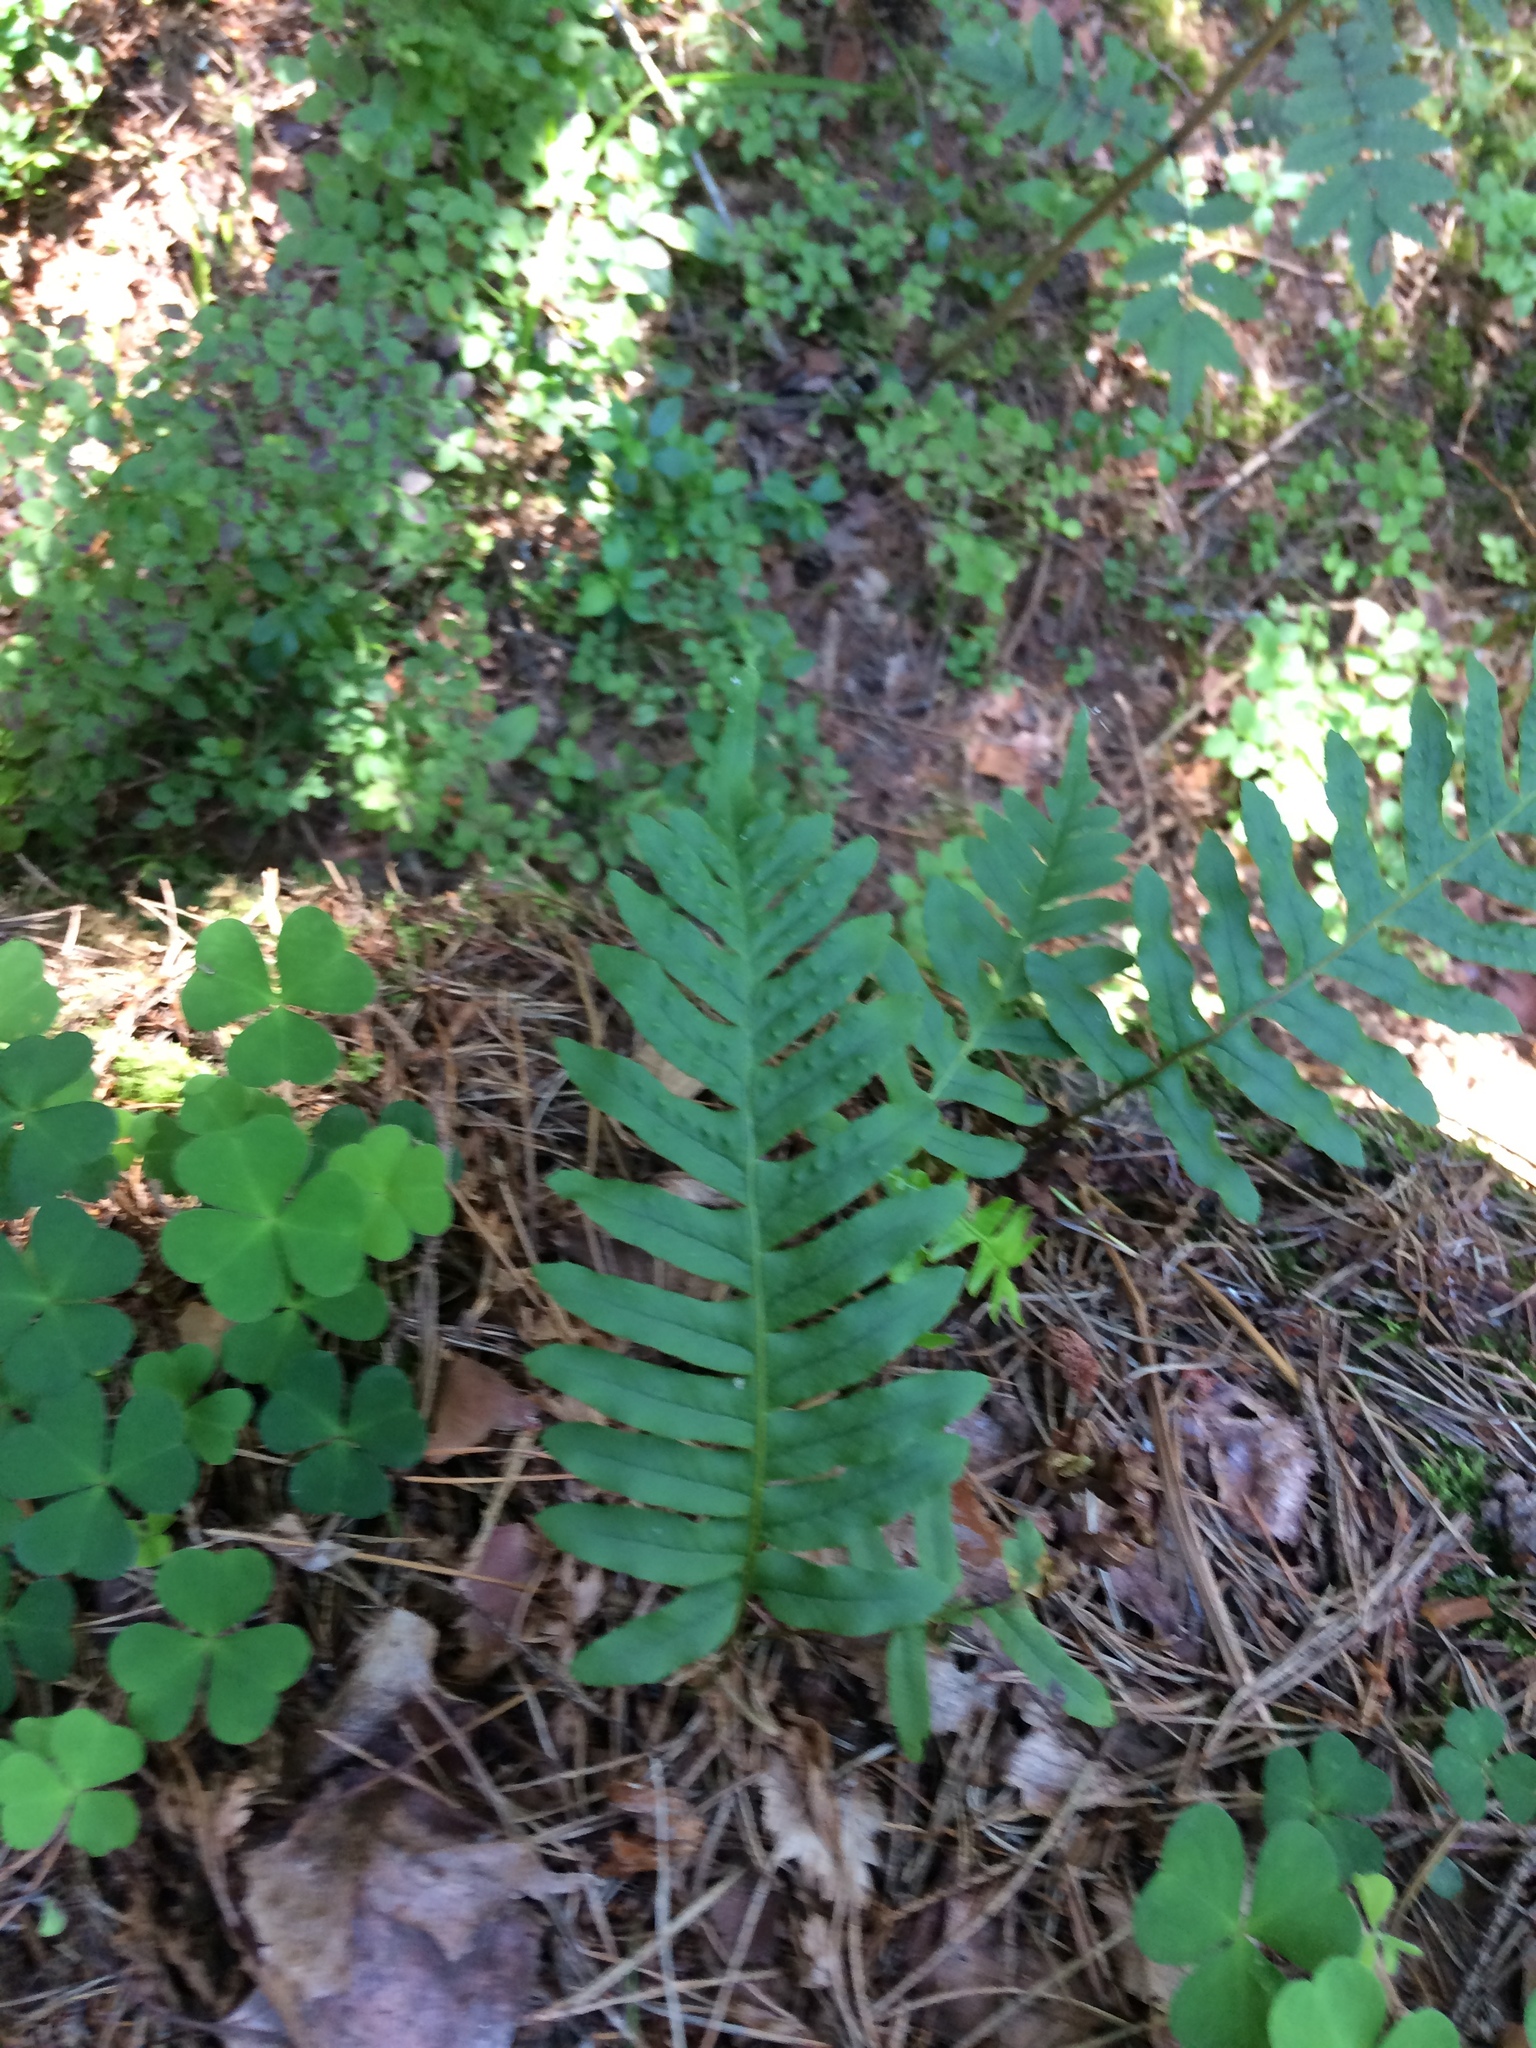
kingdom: Plantae
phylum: Tracheophyta
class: Polypodiopsida
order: Polypodiales
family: Polypodiaceae
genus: Polypodium
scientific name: Polypodium vulgare
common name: Common polypody
